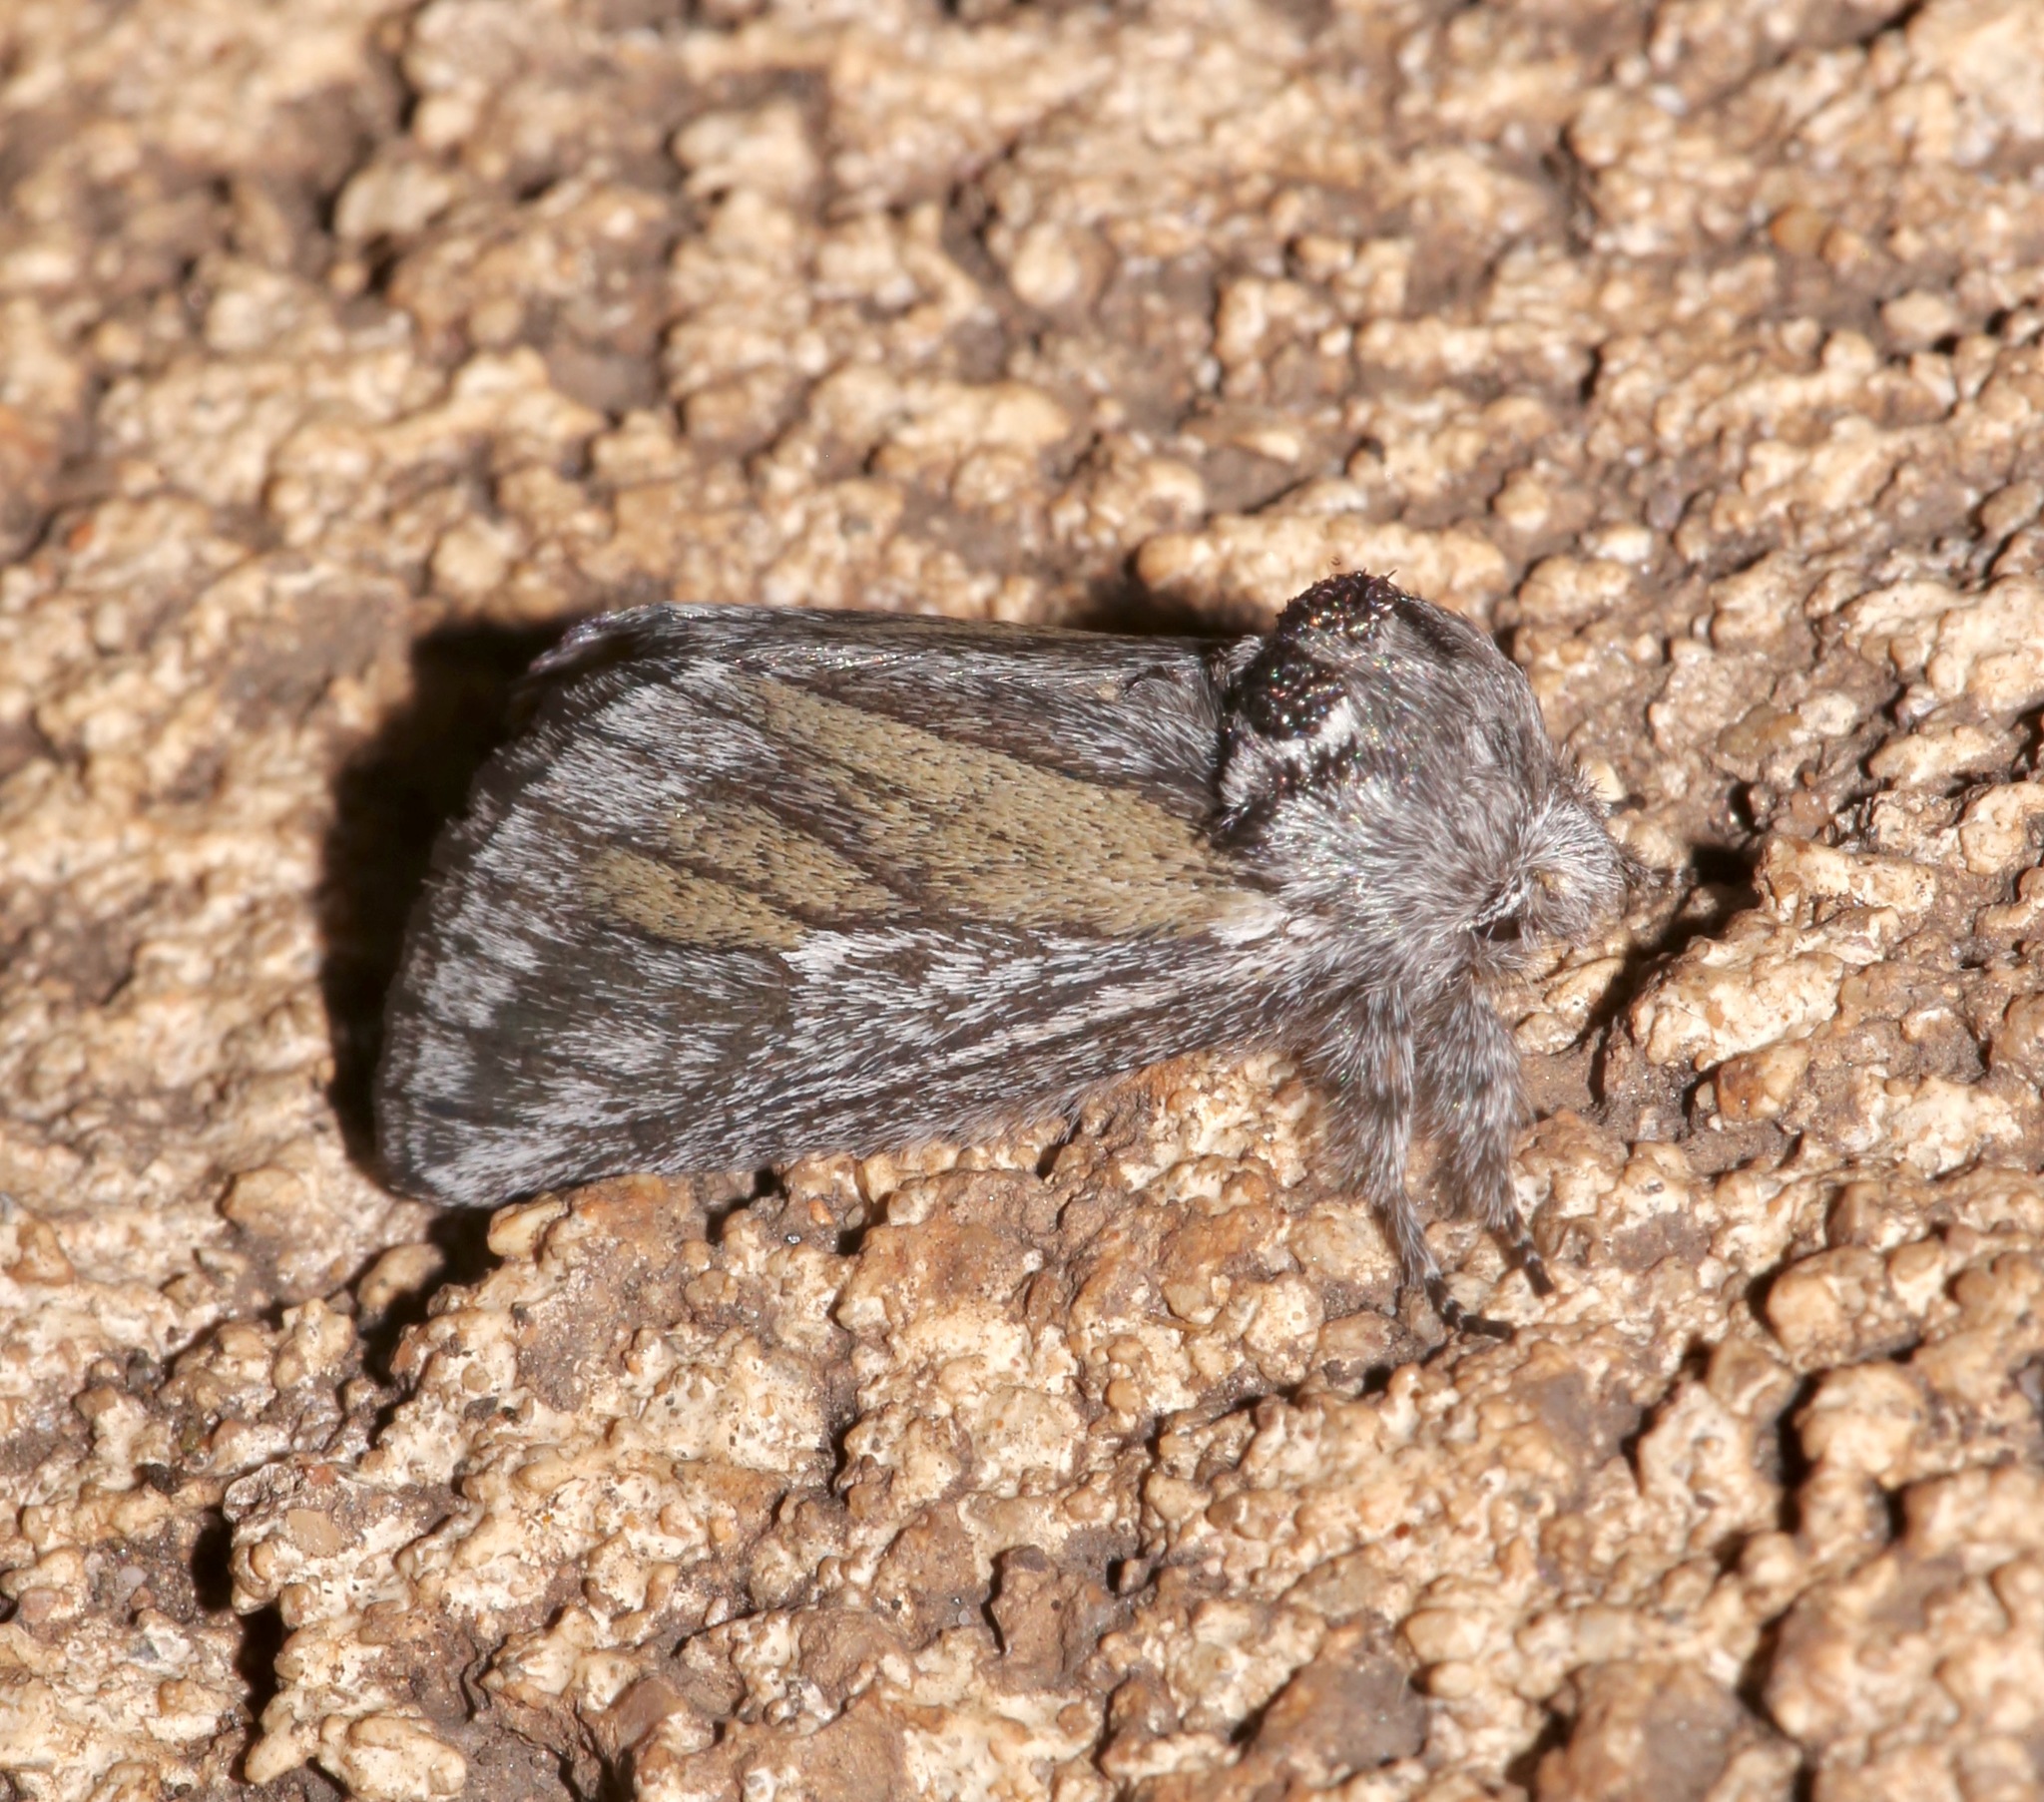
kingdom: Animalia
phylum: Arthropoda
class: Insecta
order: Lepidoptera
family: Notodontidae
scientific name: Notodontidae
